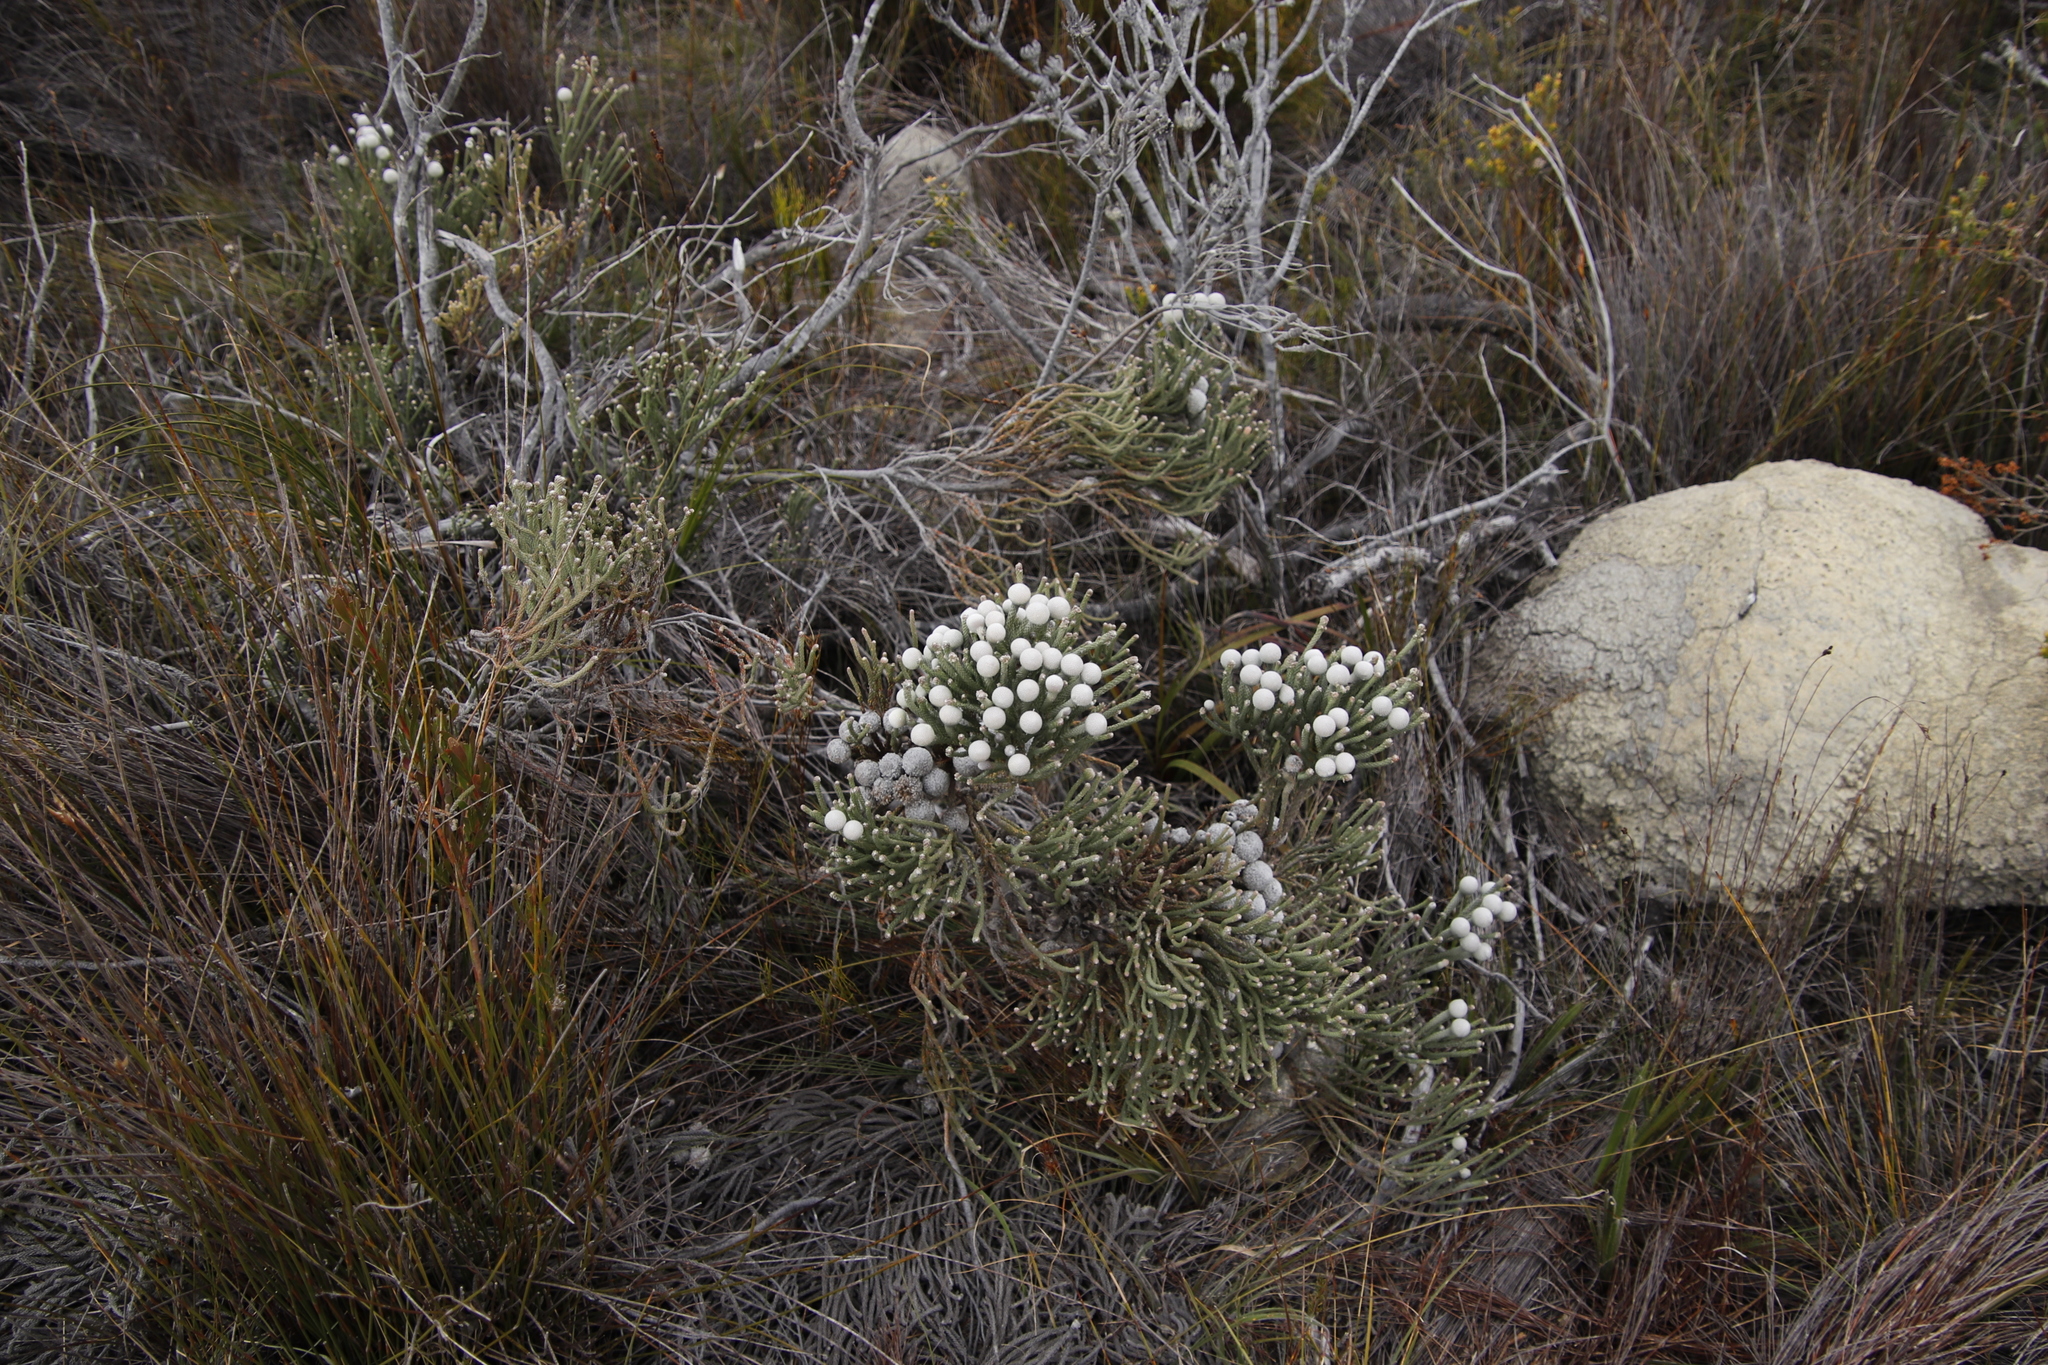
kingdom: Plantae
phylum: Tracheophyta
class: Magnoliopsida
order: Bruniales
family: Bruniaceae
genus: Brunia
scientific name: Brunia laevis
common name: Silver brunia
